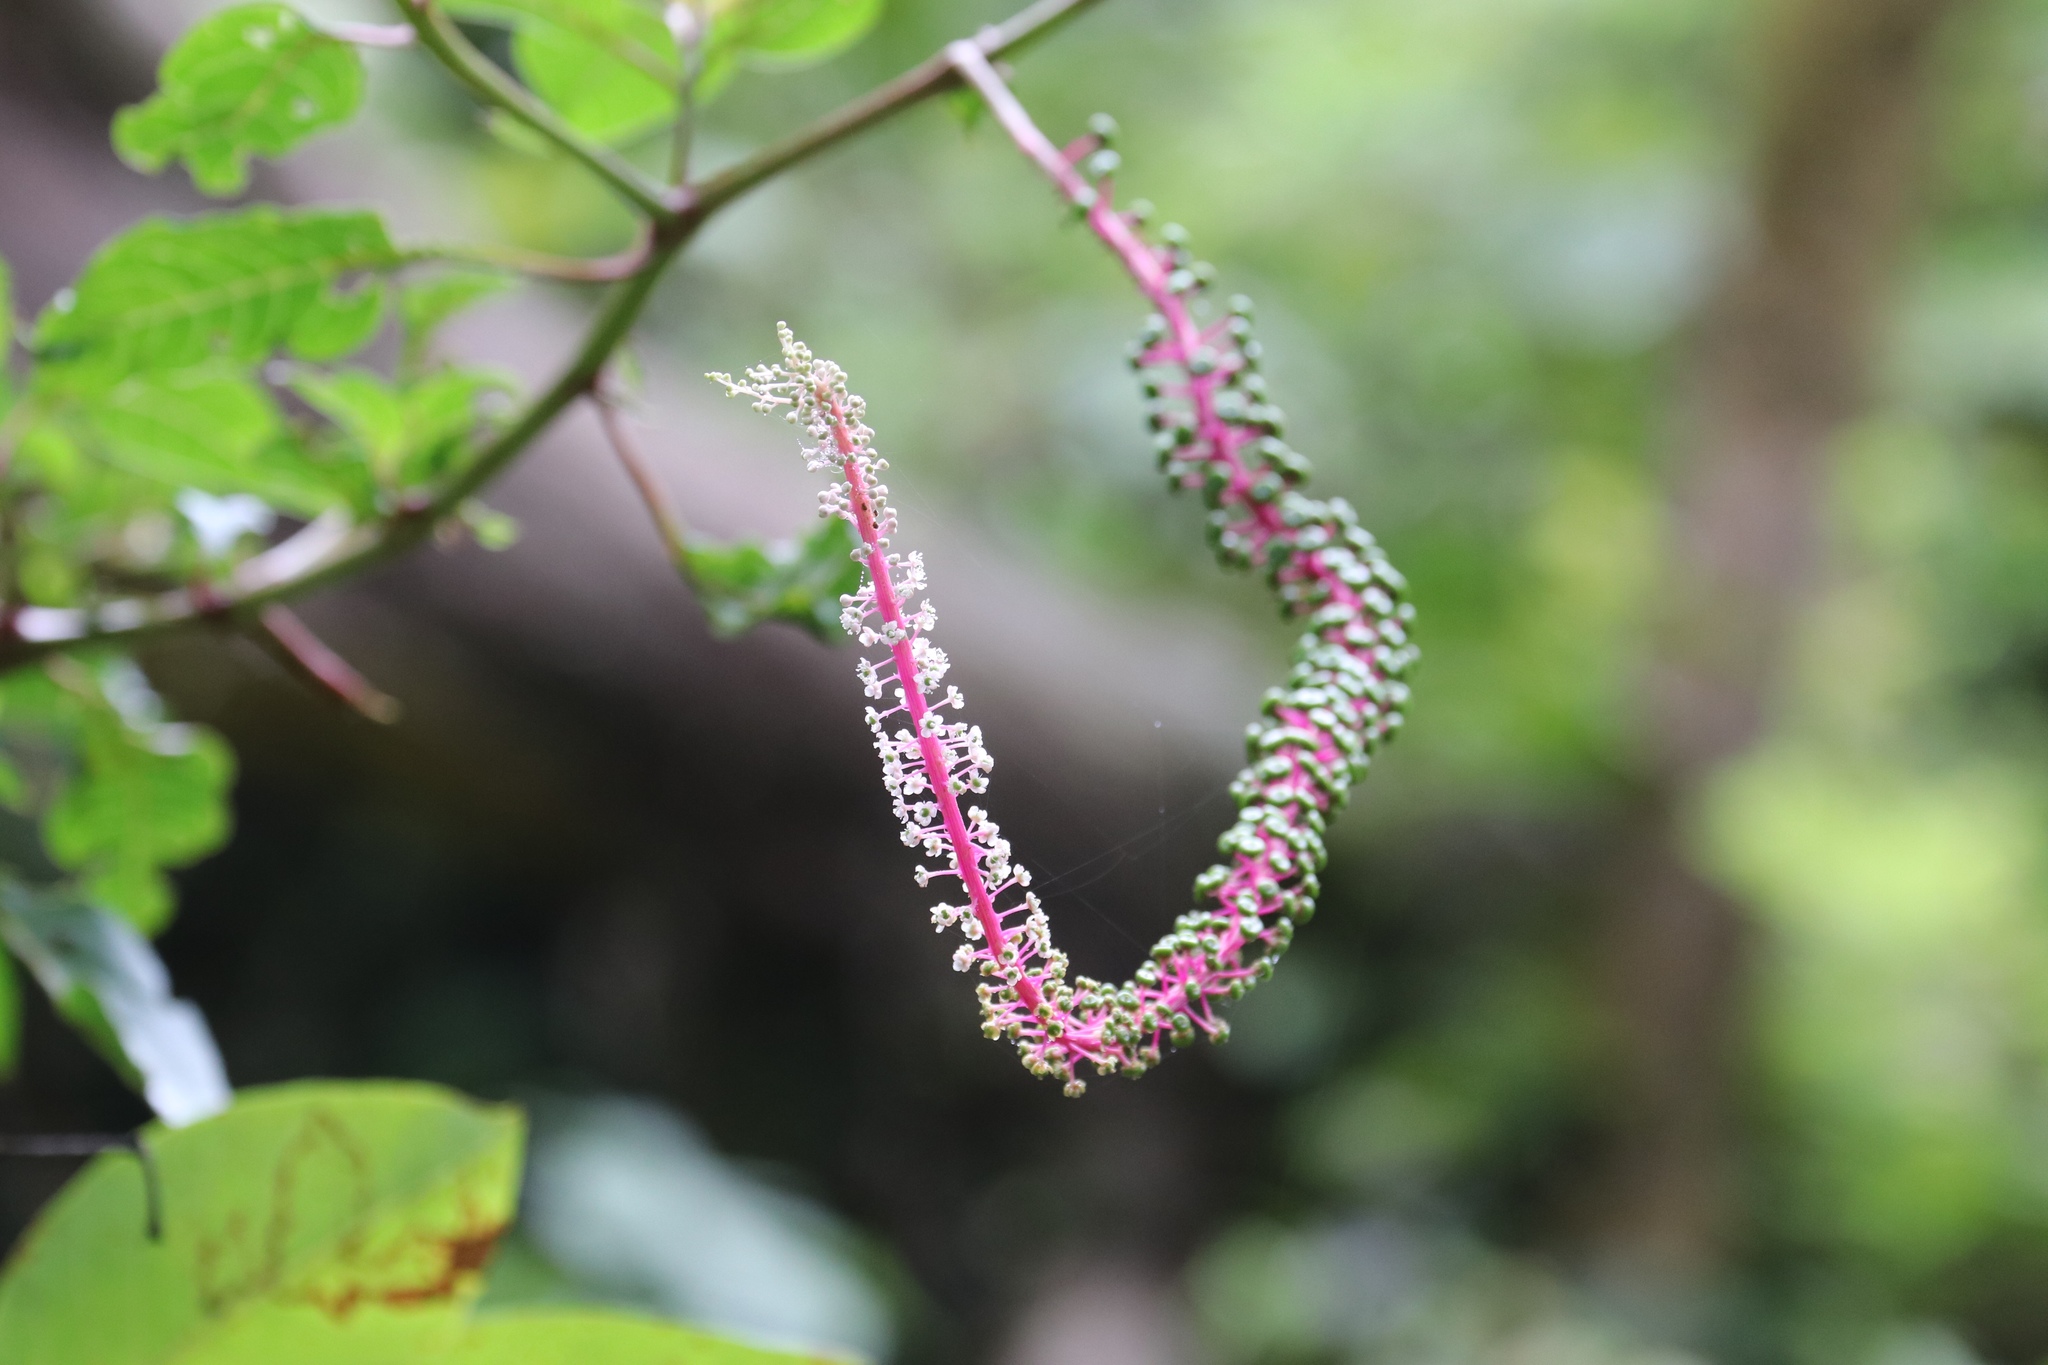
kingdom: Plantae
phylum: Tracheophyta
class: Magnoliopsida
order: Caryophyllales
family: Phytolaccaceae
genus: Phytolacca
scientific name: Phytolacca rivinoides
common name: Venezuelan pokeweed
